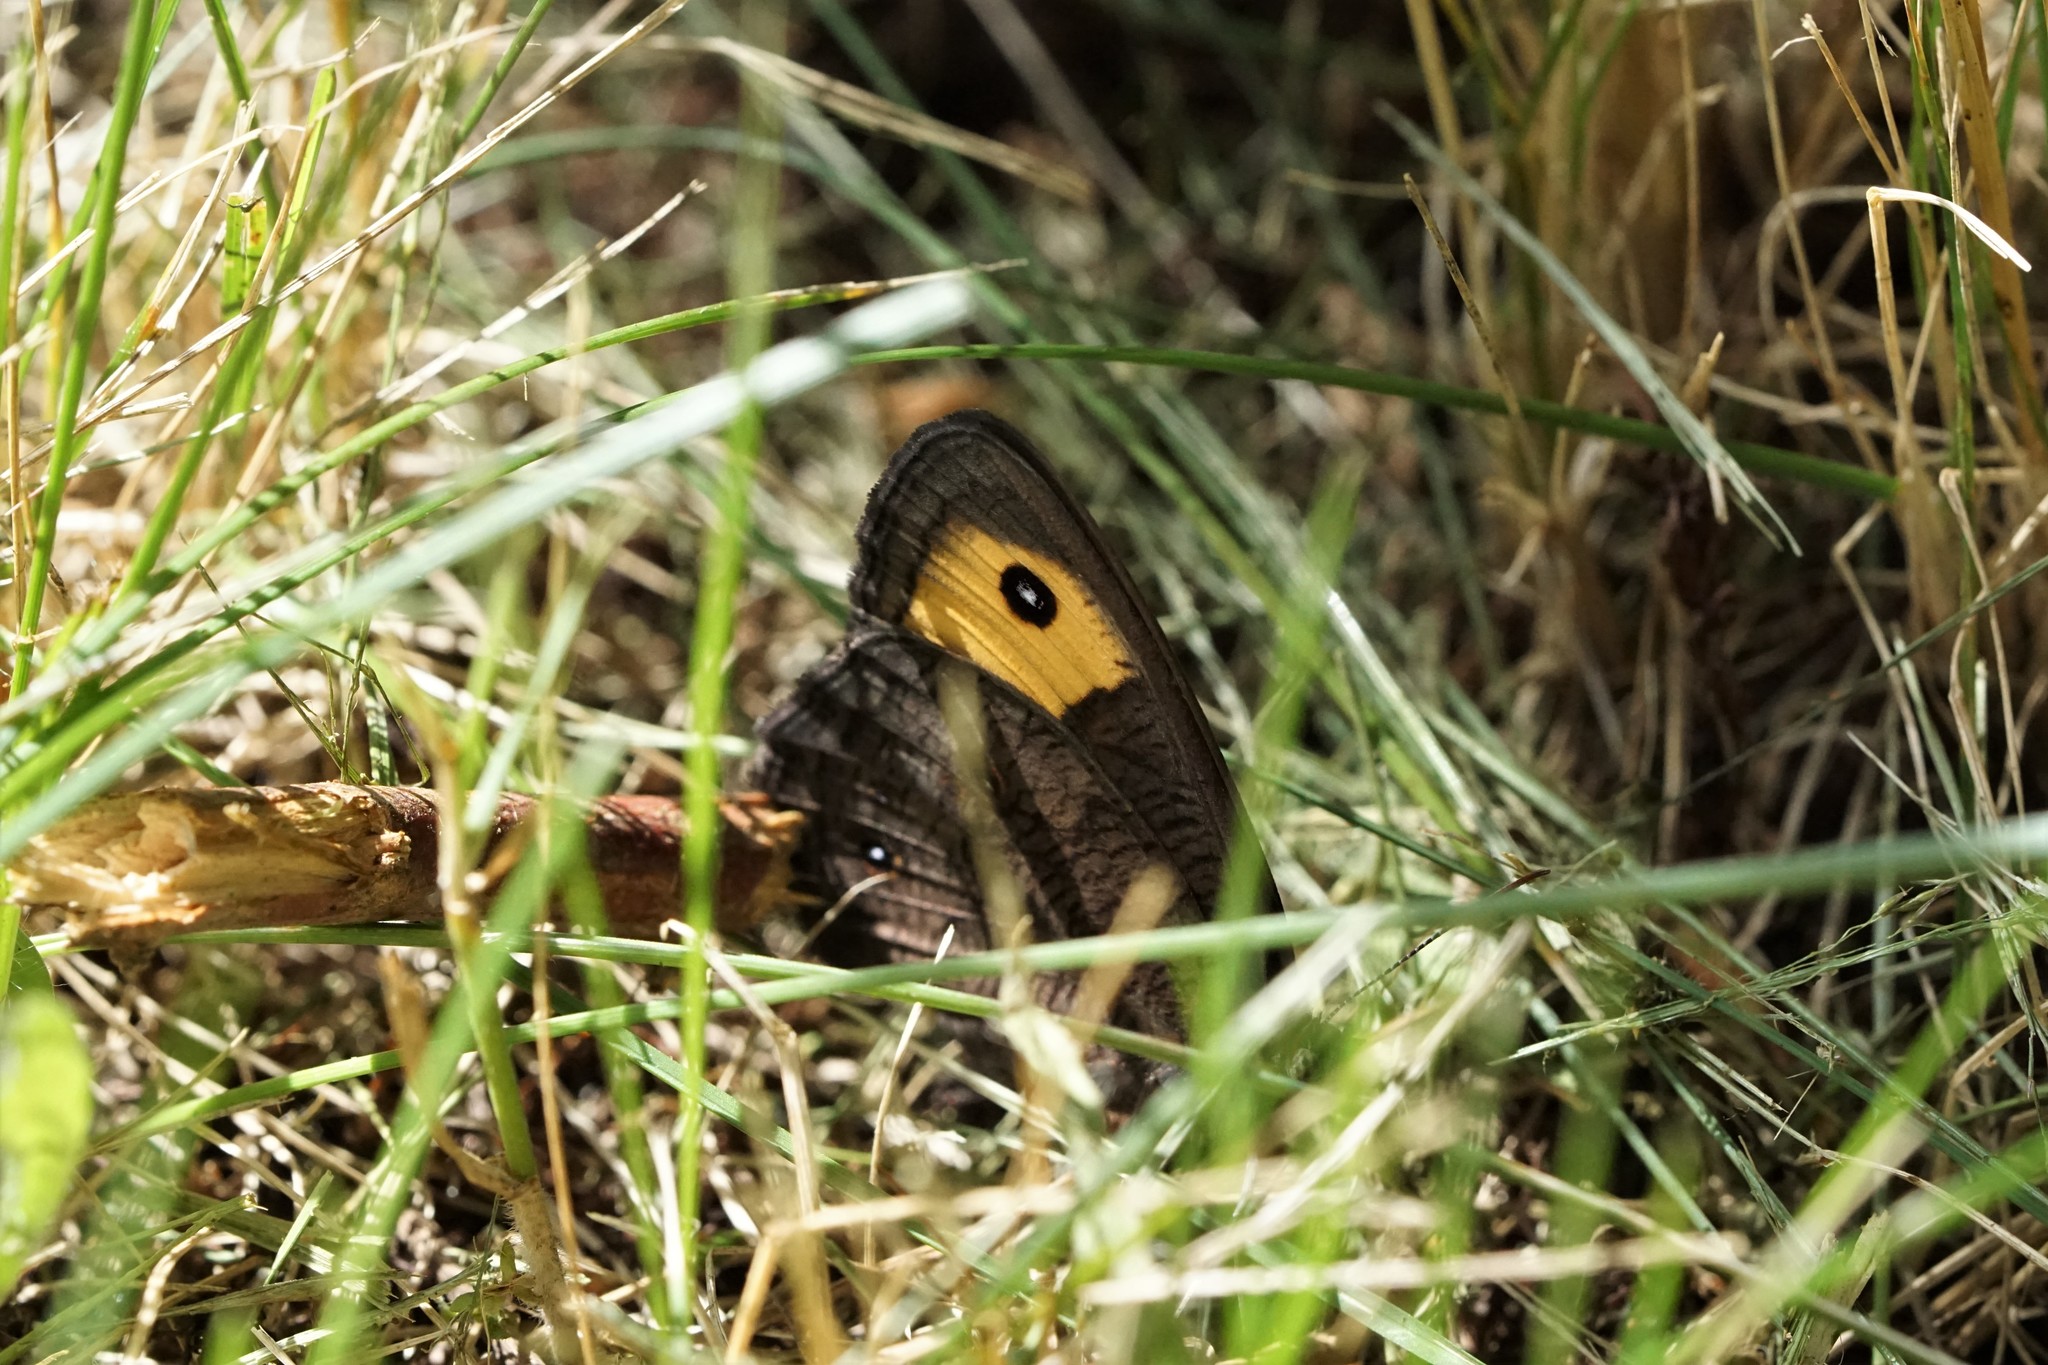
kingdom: Animalia
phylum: Arthropoda
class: Insecta
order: Lepidoptera
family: Nymphalidae
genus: Cercyonis
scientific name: Cercyonis pegala
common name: Common wood-nymph
